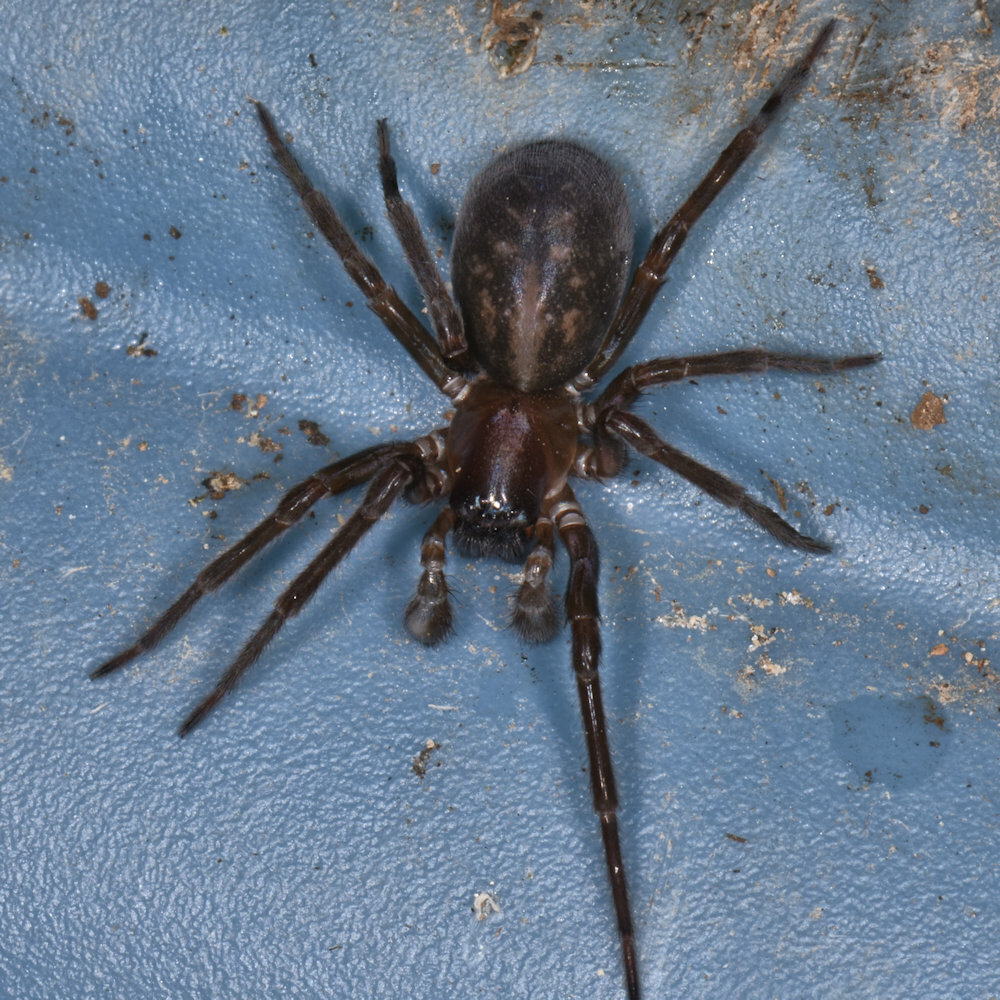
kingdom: Animalia
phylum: Arthropoda
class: Arachnida
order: Araneae
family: Amaurobiidae
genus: Amaurobius
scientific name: Amaurobius ferox
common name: Black laceweaver
